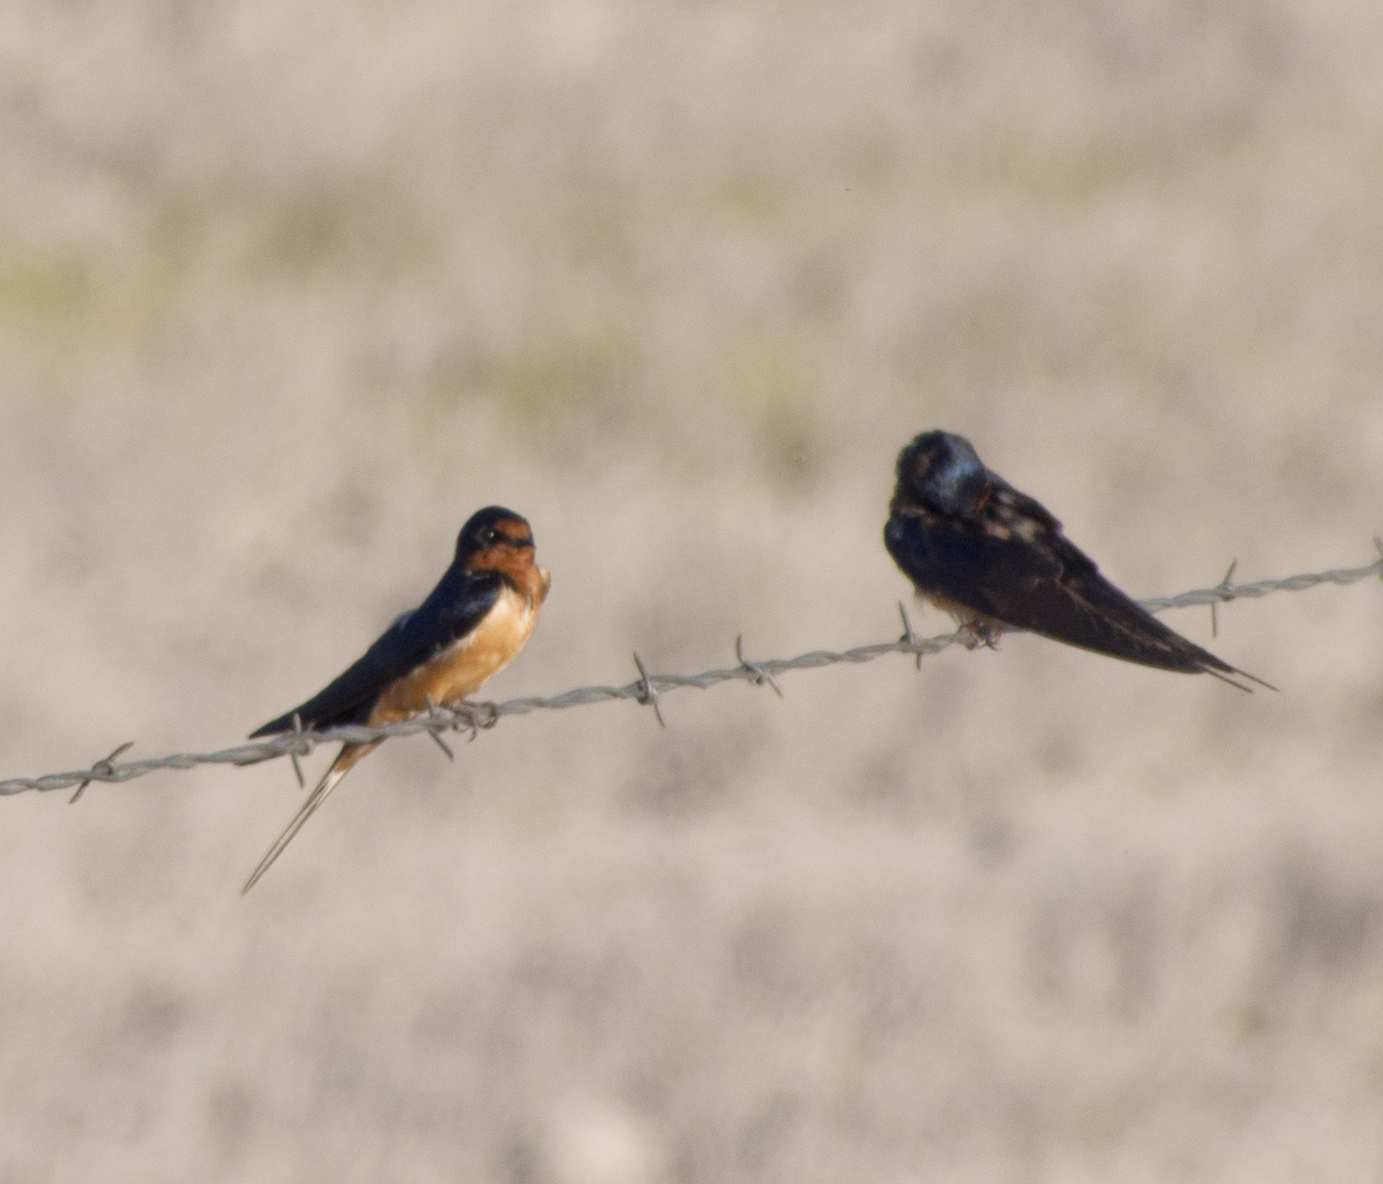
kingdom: Animalia
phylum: Chordata
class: Aves
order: Passeriformes
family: Hirundinidae
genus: Hirundo
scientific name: Hirundo rustica
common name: Barn swallow
